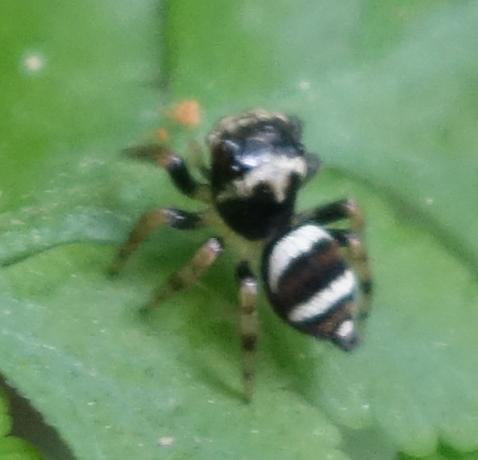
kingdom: Animalia
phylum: Arthropoda
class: Arachnida
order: Araneae
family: Salticidae
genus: Ptocasius
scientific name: Ptocasius strupifer
